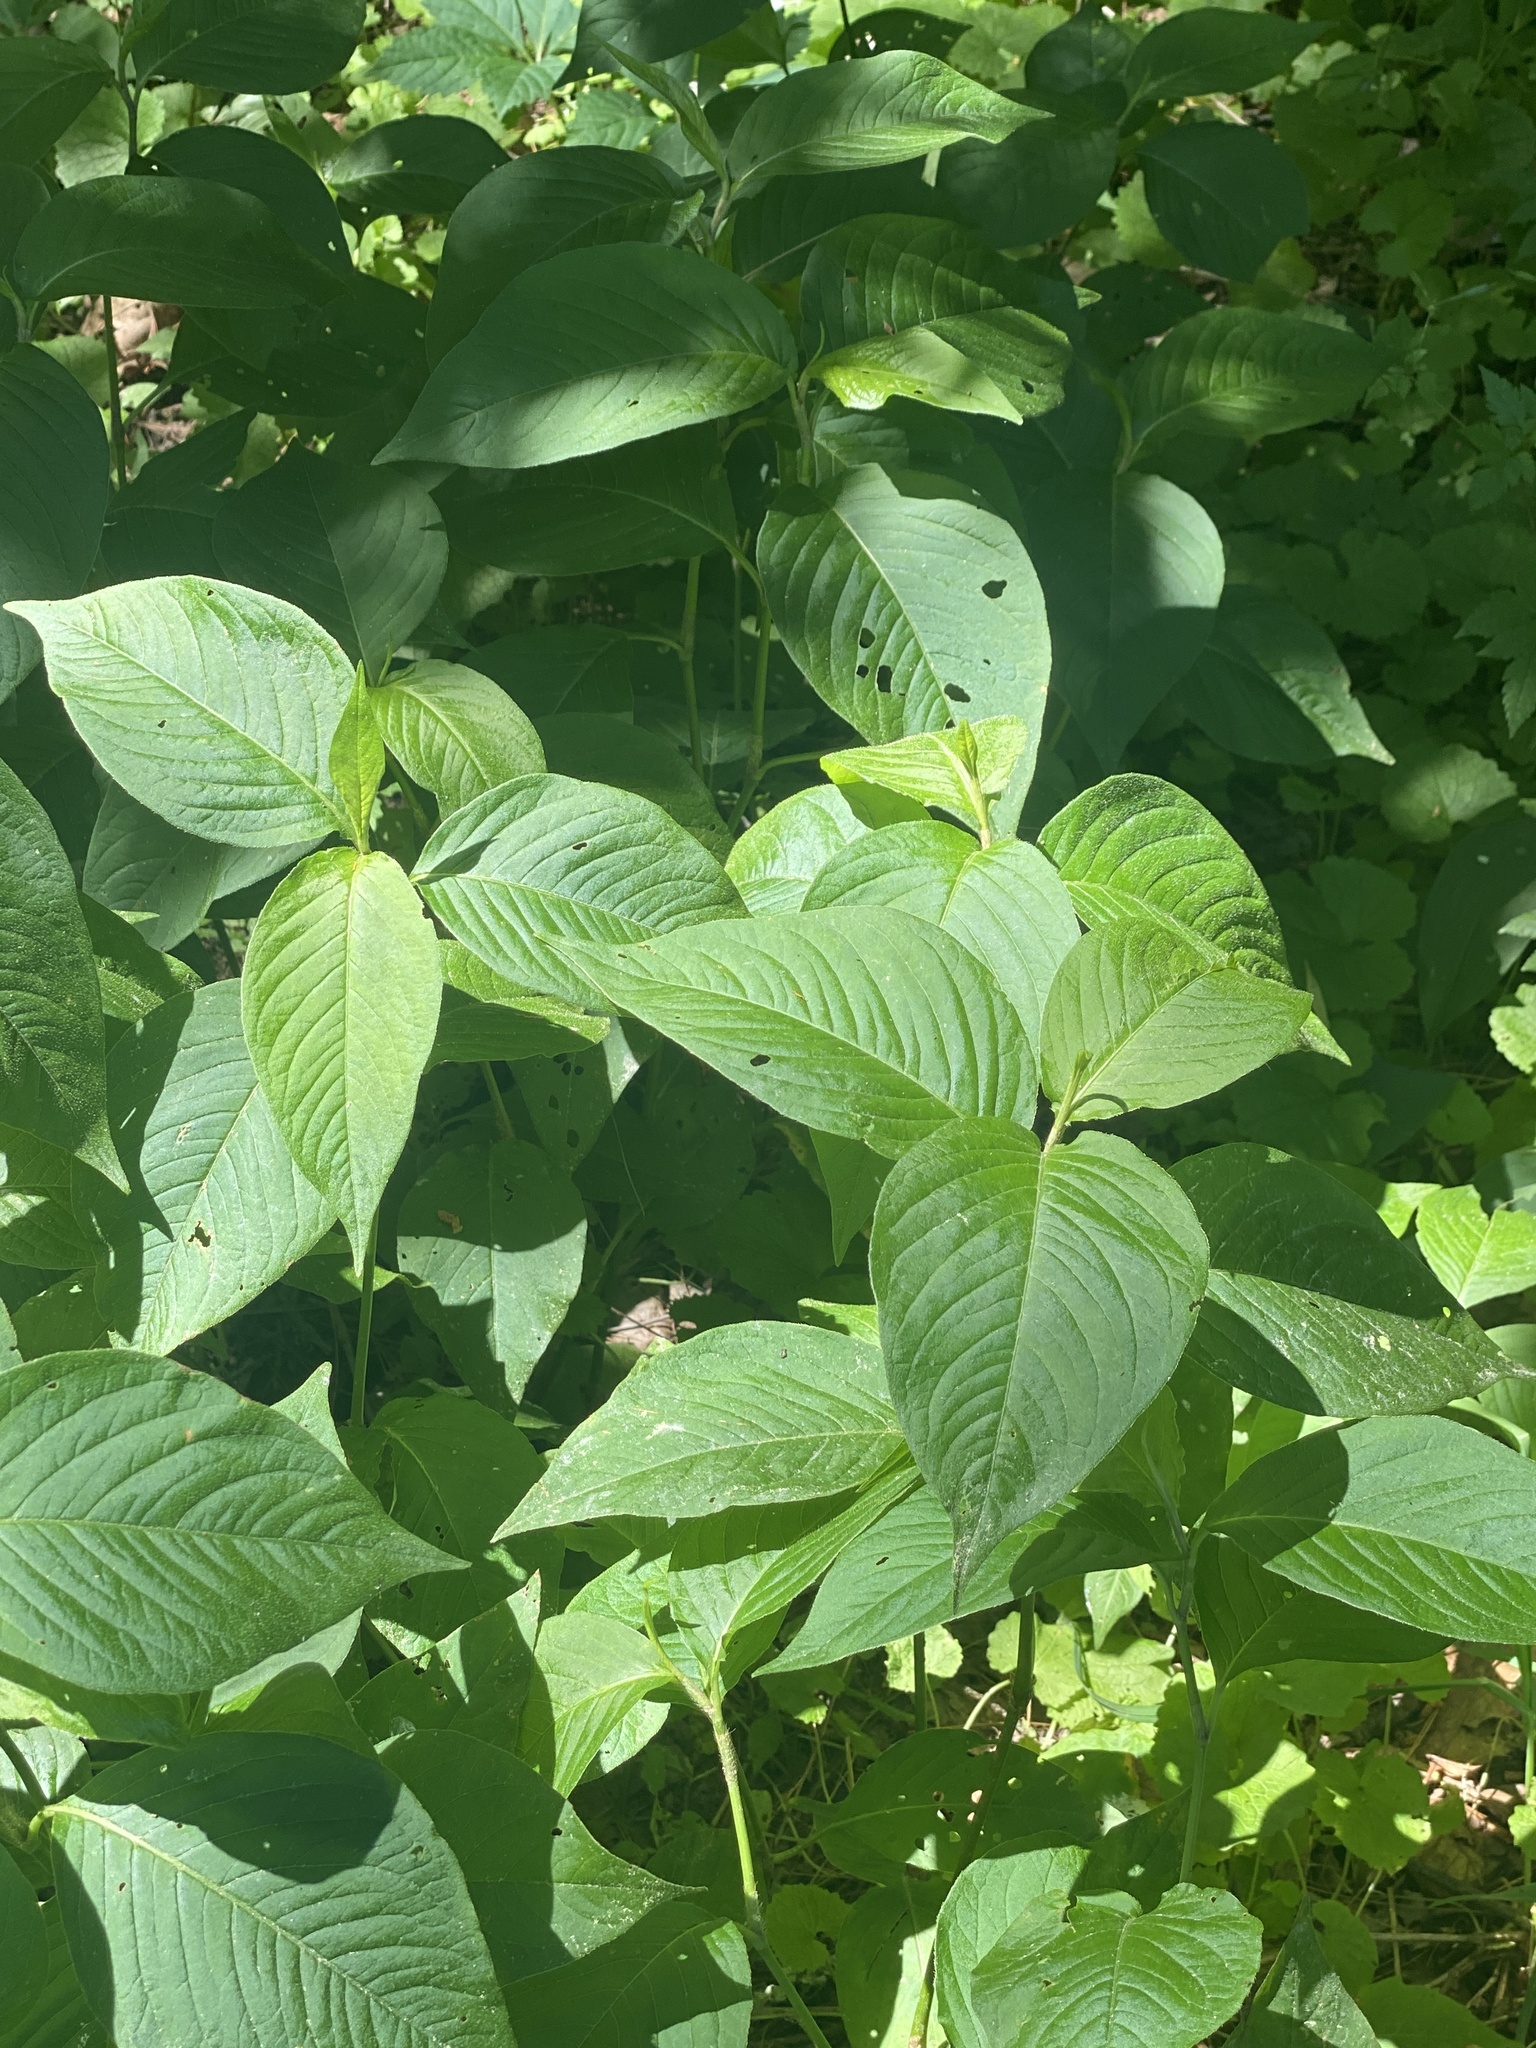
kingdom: Plantae
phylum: Tracheophyta
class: Magnoliopsida
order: Caryophyllales
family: Polygonaceae
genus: Persicaria
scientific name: Persicaria virginiana
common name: Jumpseed
